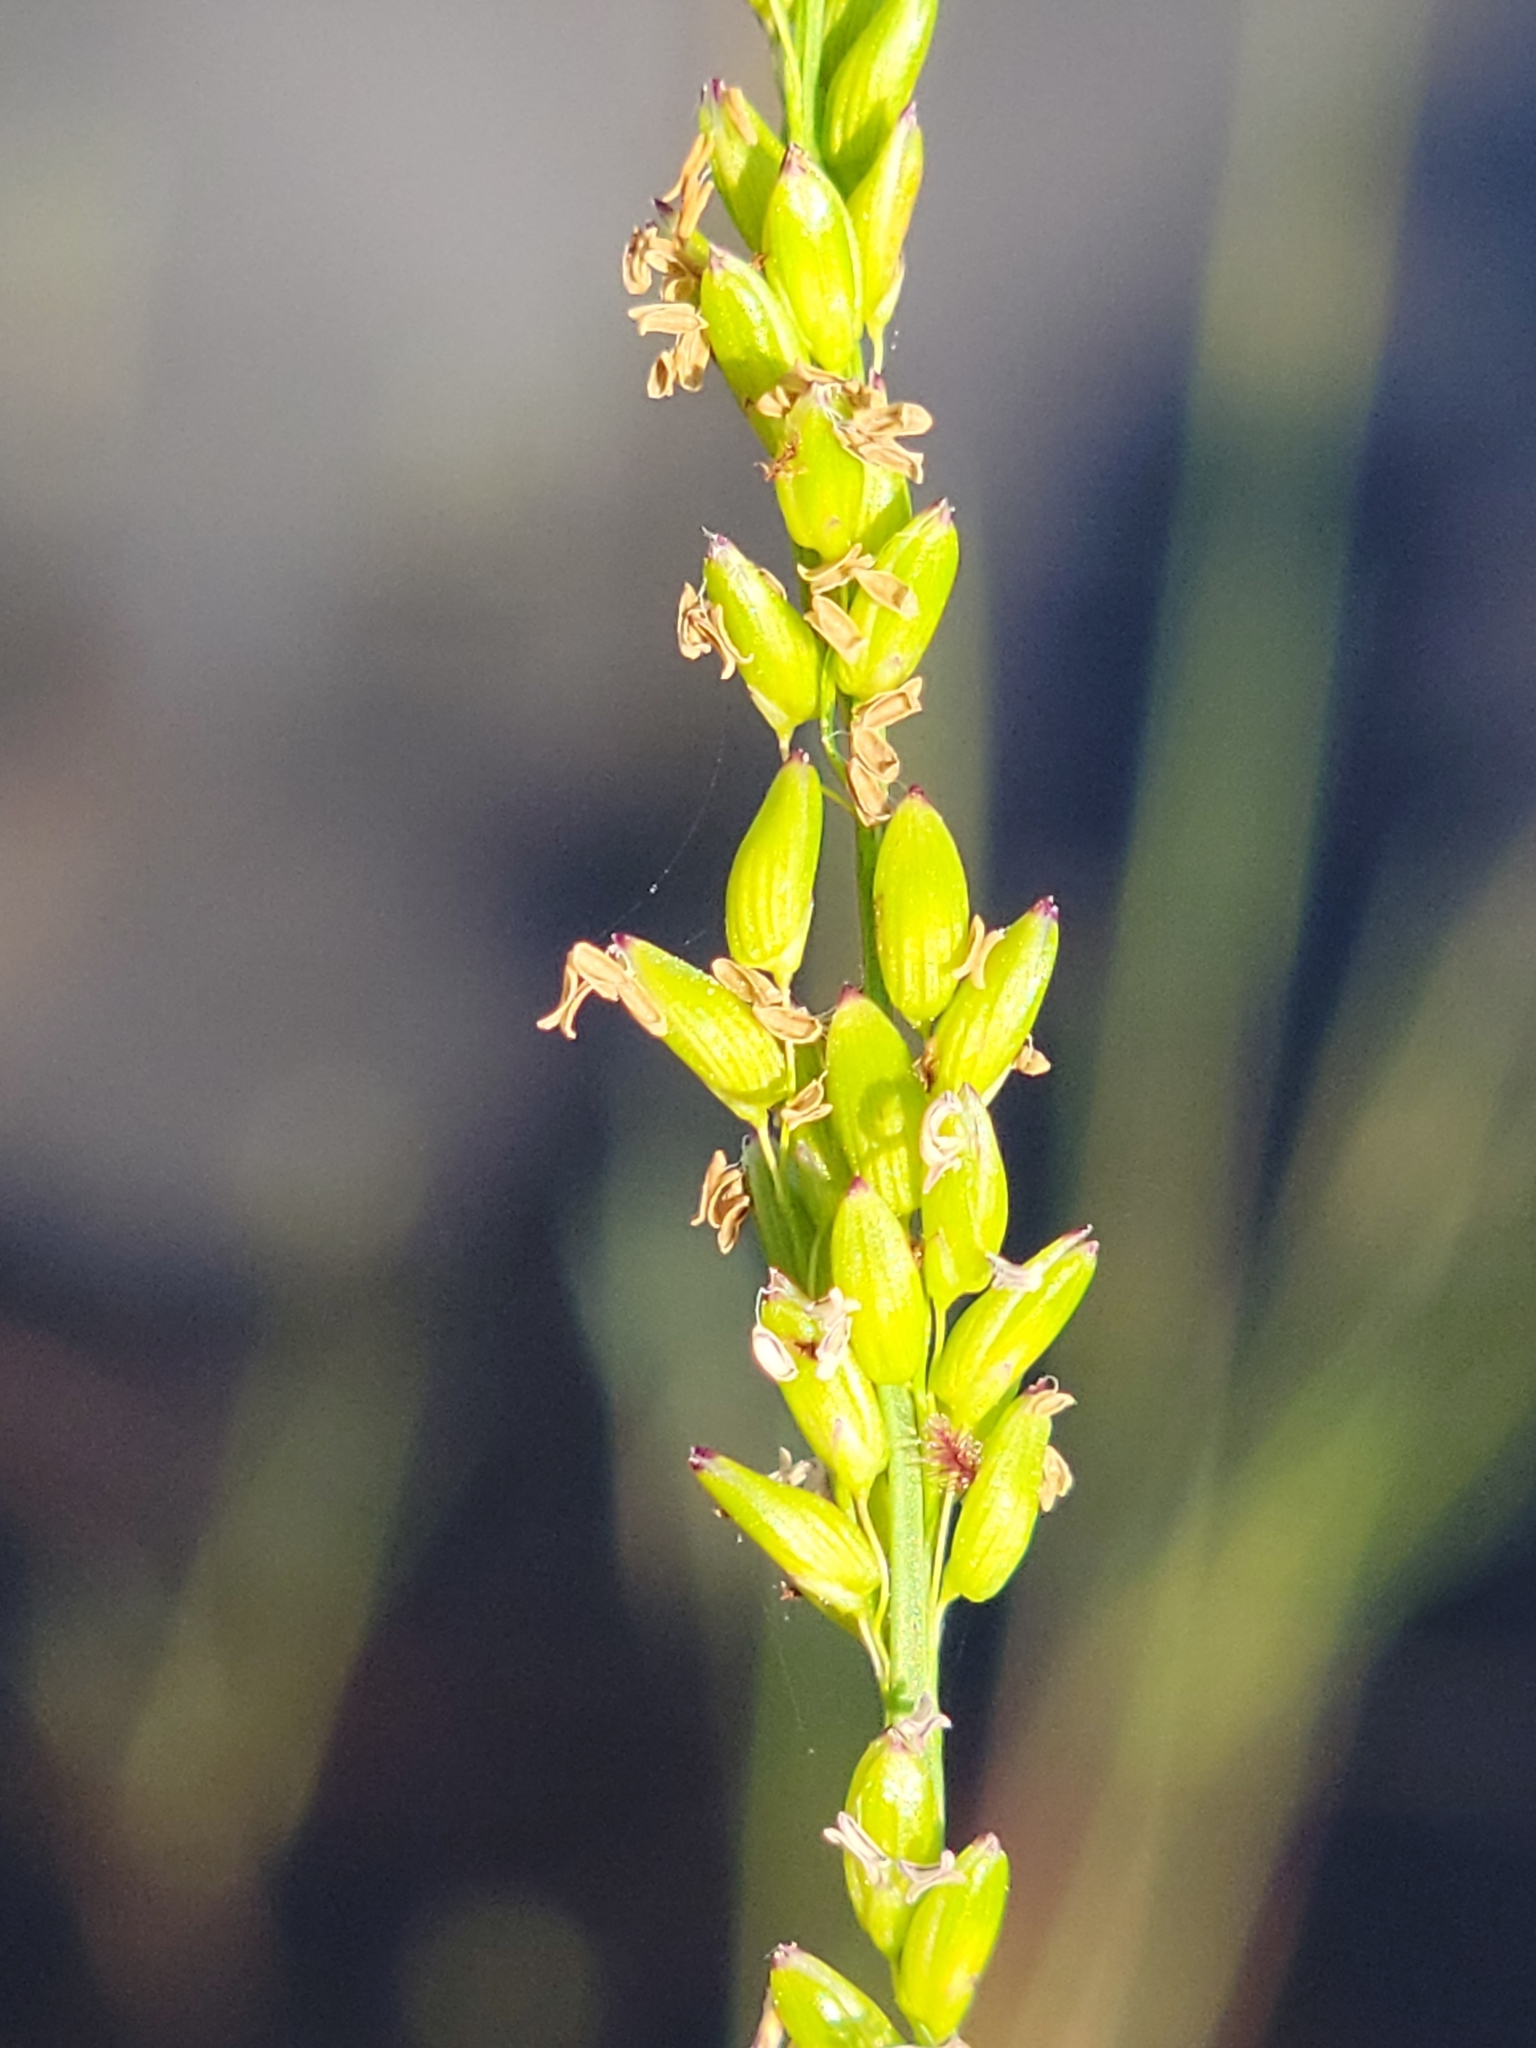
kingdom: Plantae
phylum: Tracheophyta
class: Liliopsida
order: Poales
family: Poaceae
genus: Sacciolepis
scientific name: Sacciolepis striata
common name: American cupscale
